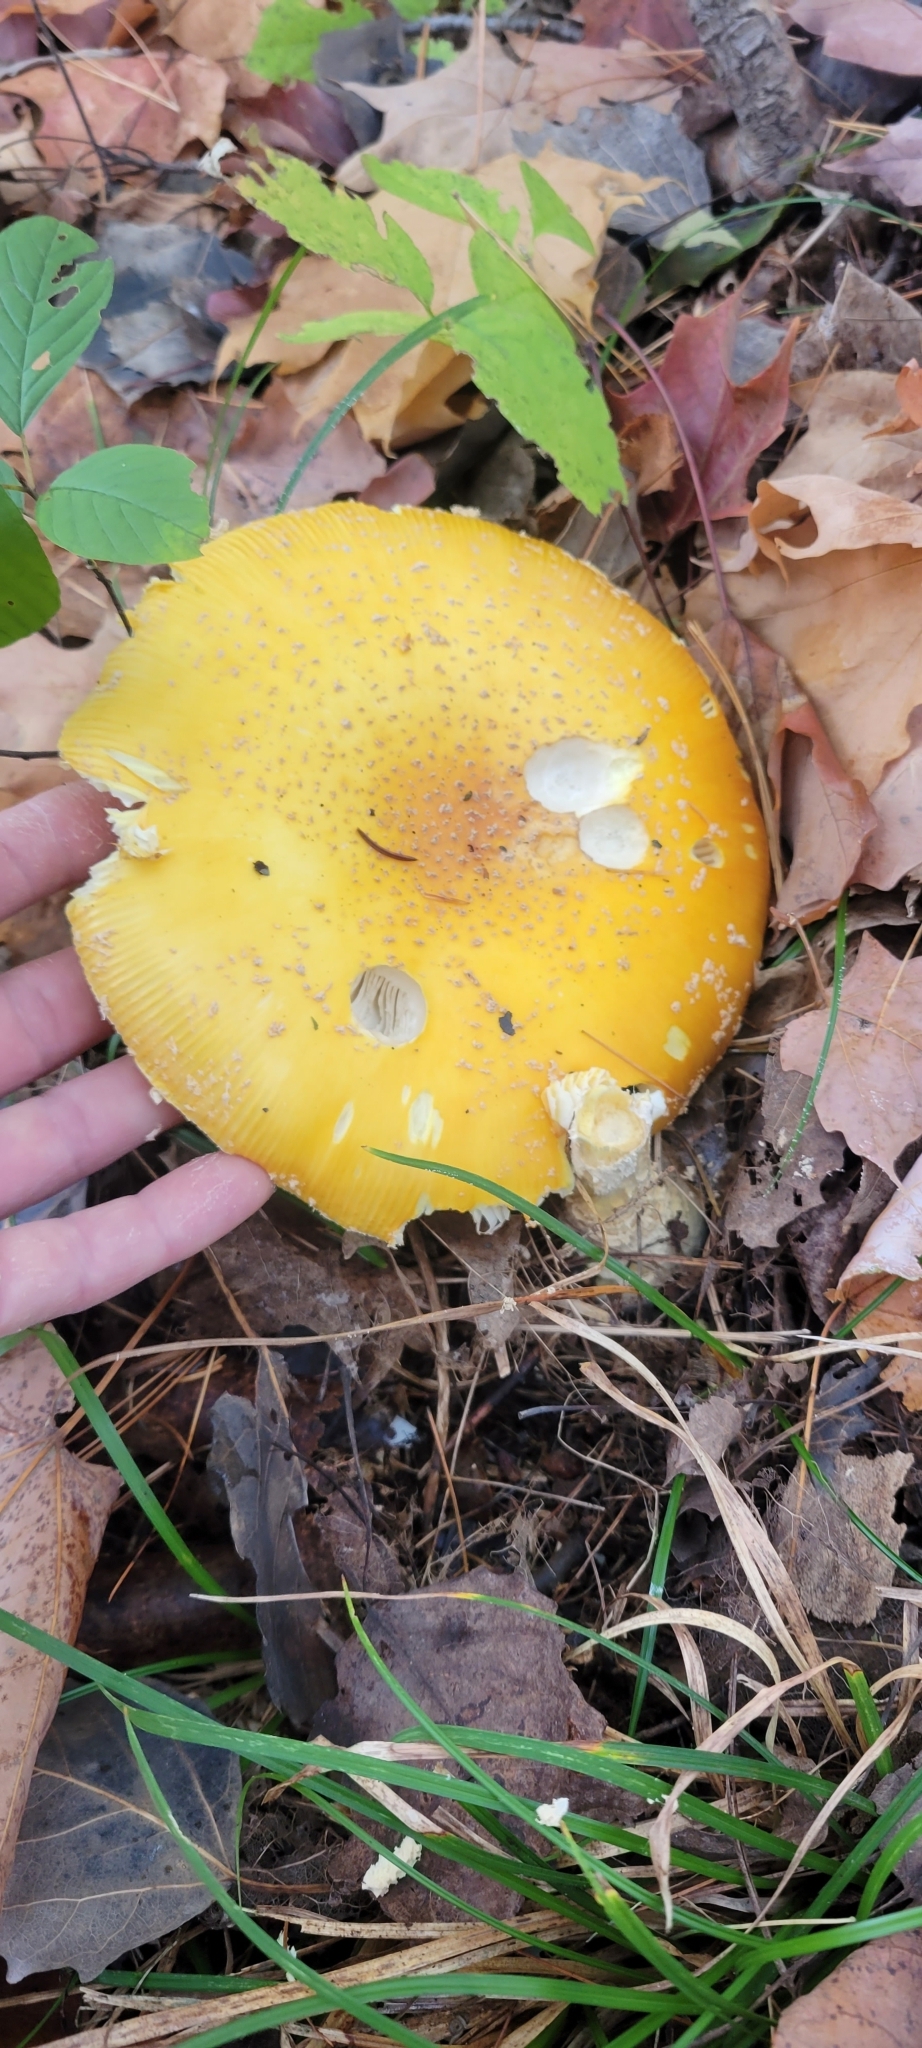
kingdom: Fungi
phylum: Basidiomycota
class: Agaricomycetes
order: Agaricales
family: Amanitaceae
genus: Amanita
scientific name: Amanita muscaria
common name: Fly agaric
